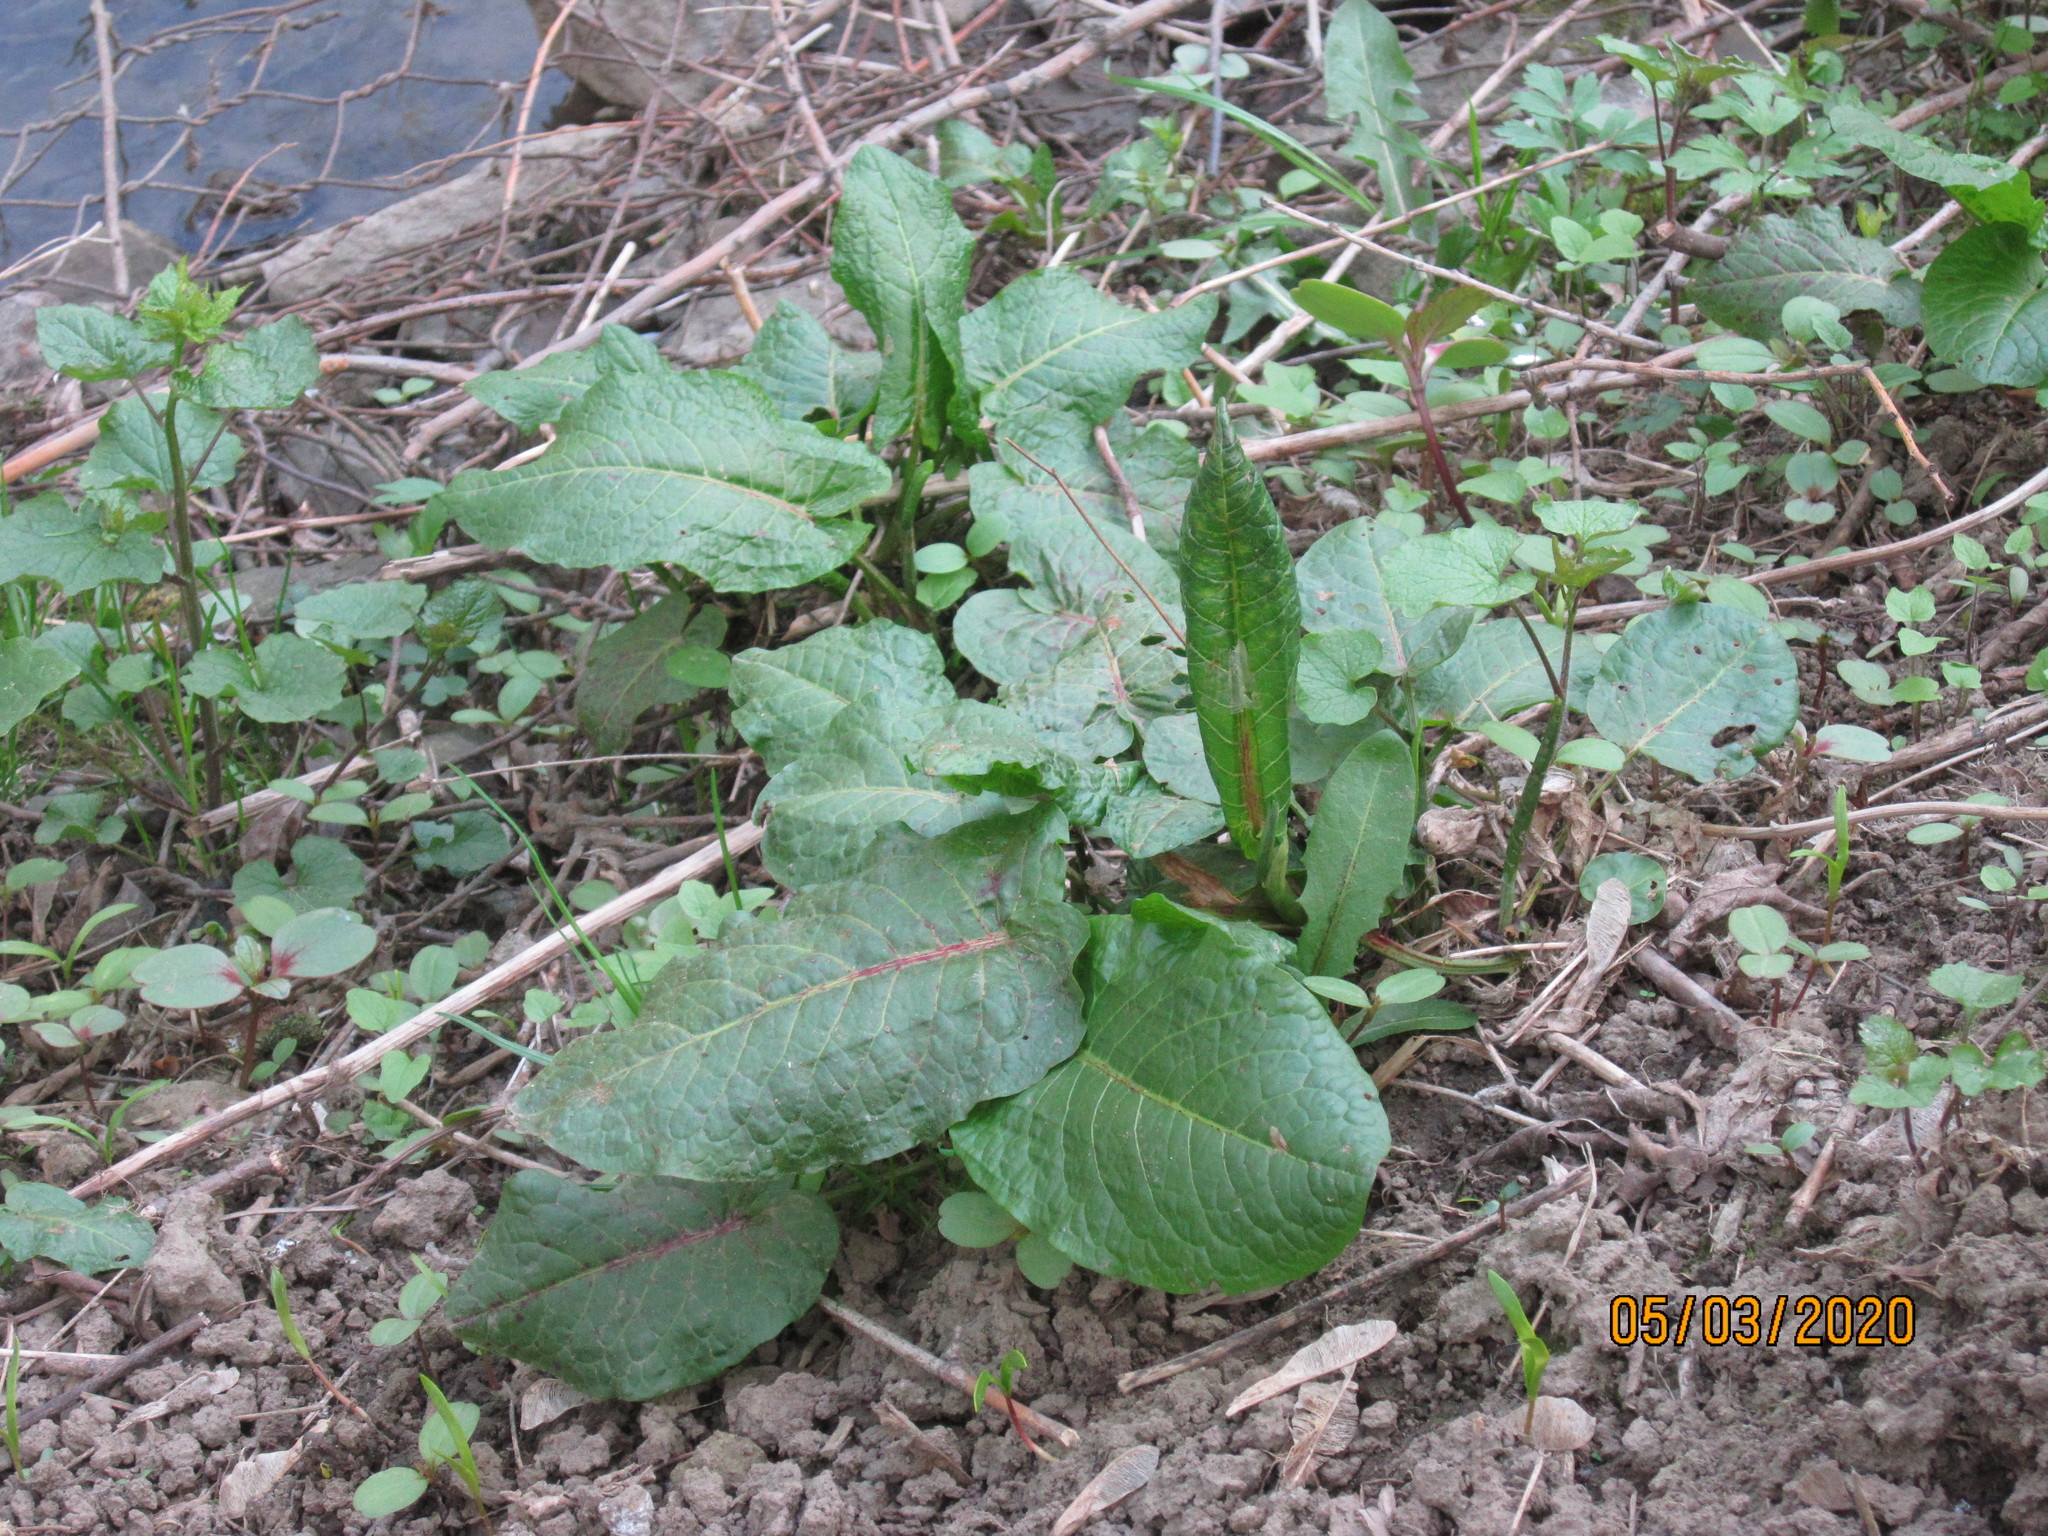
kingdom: Plantae
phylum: Tracheophyta
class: Magnoliopsida
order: Caryophyllales
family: Polygonaceae
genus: Rumex
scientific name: Rumex obtusifolius
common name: Bitter dock
